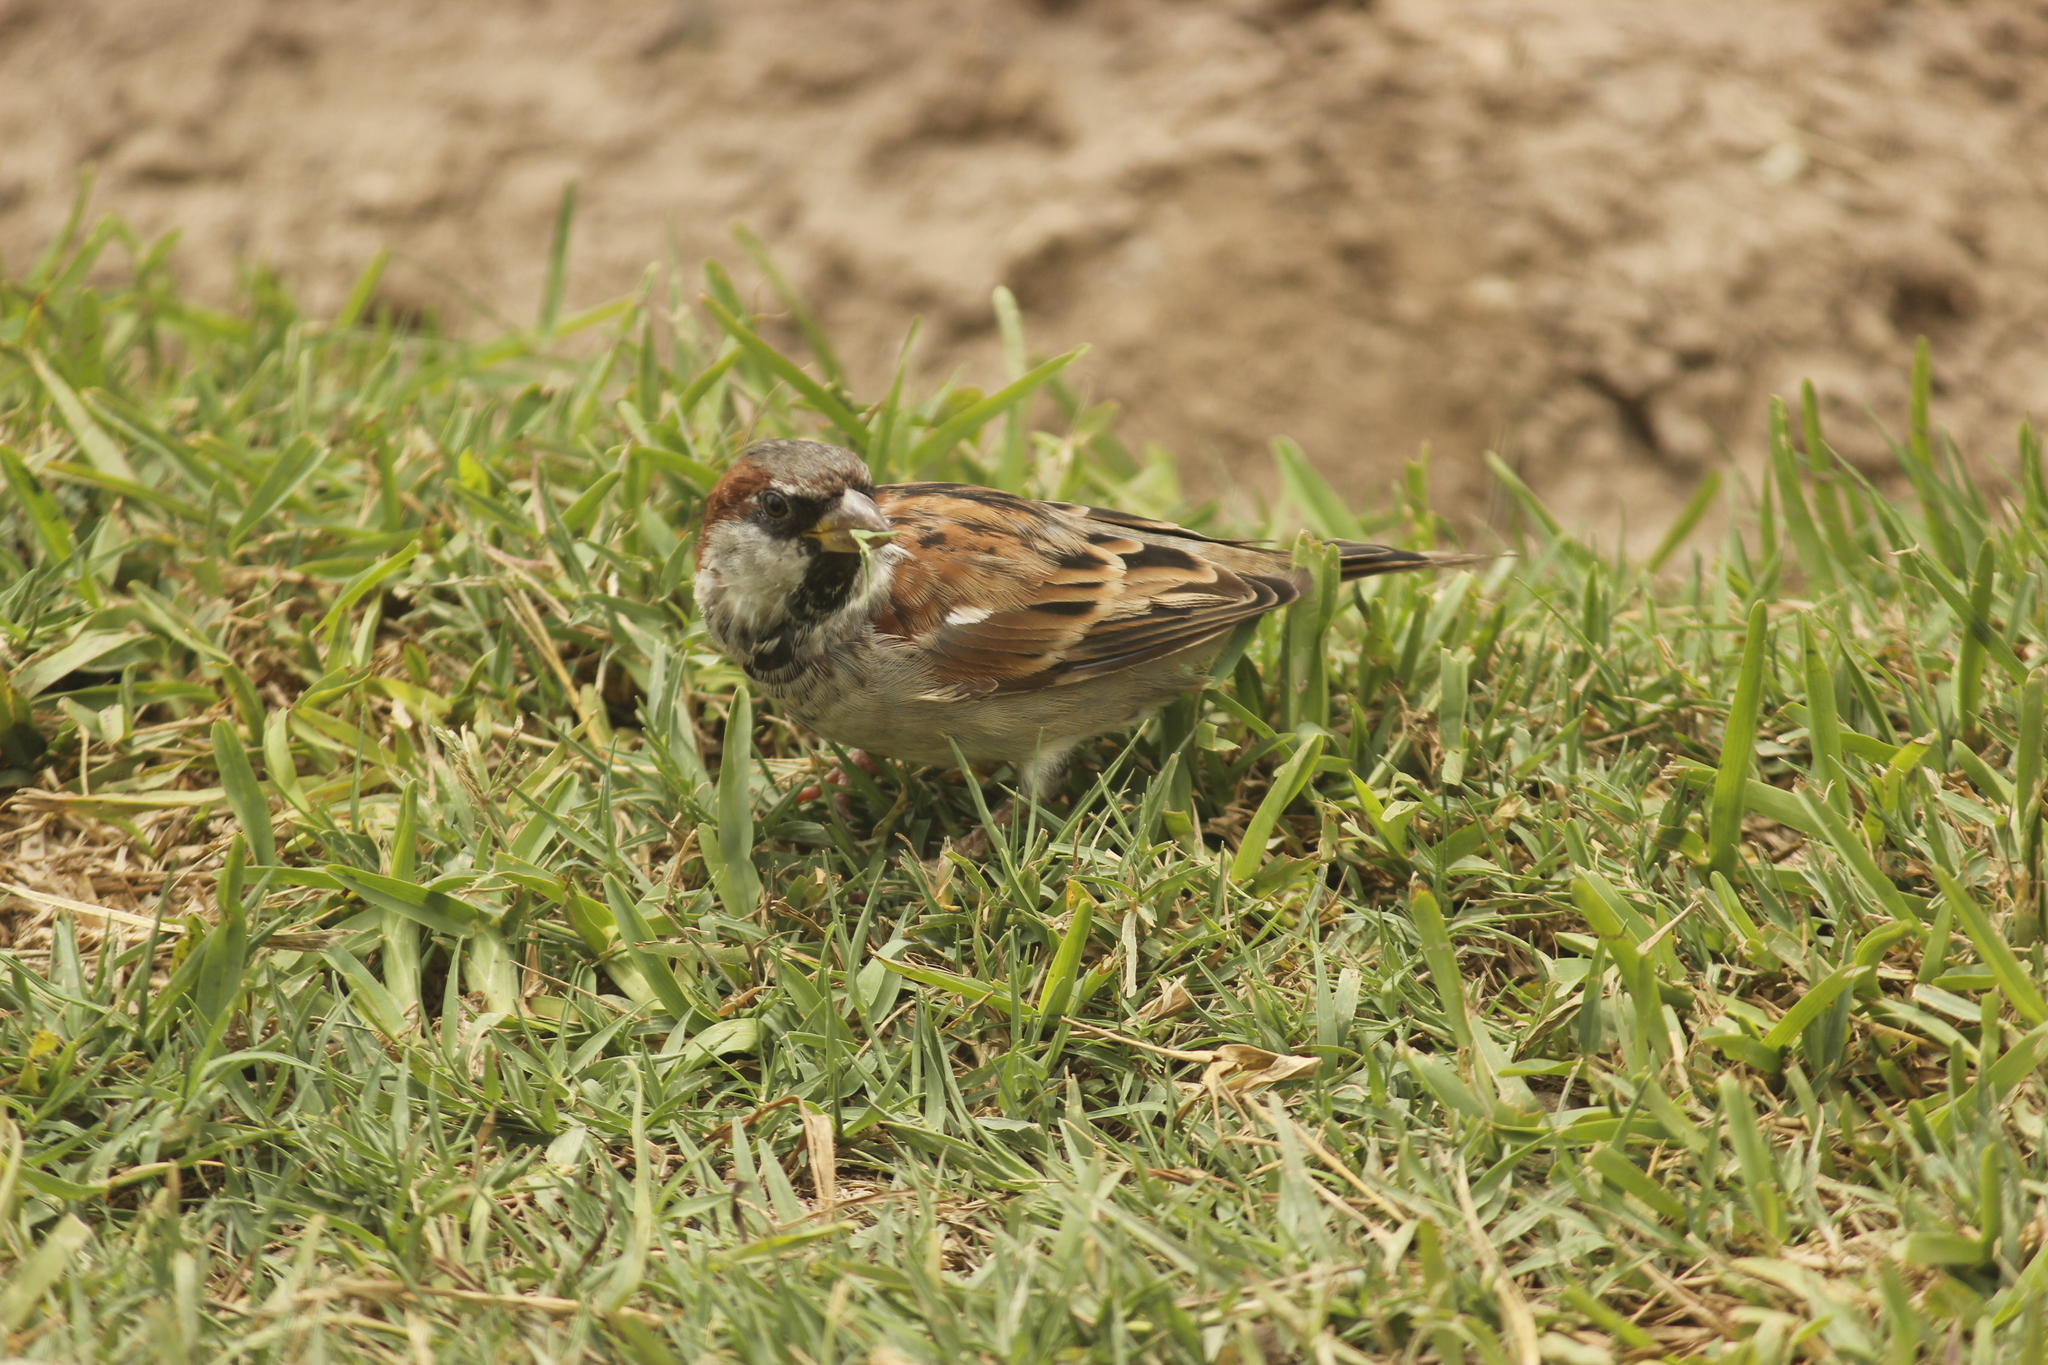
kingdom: Animalia
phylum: Chordata
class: Aves
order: Passeriformes
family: Passeridae
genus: Passer
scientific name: Passer domesticus
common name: House sparrow
